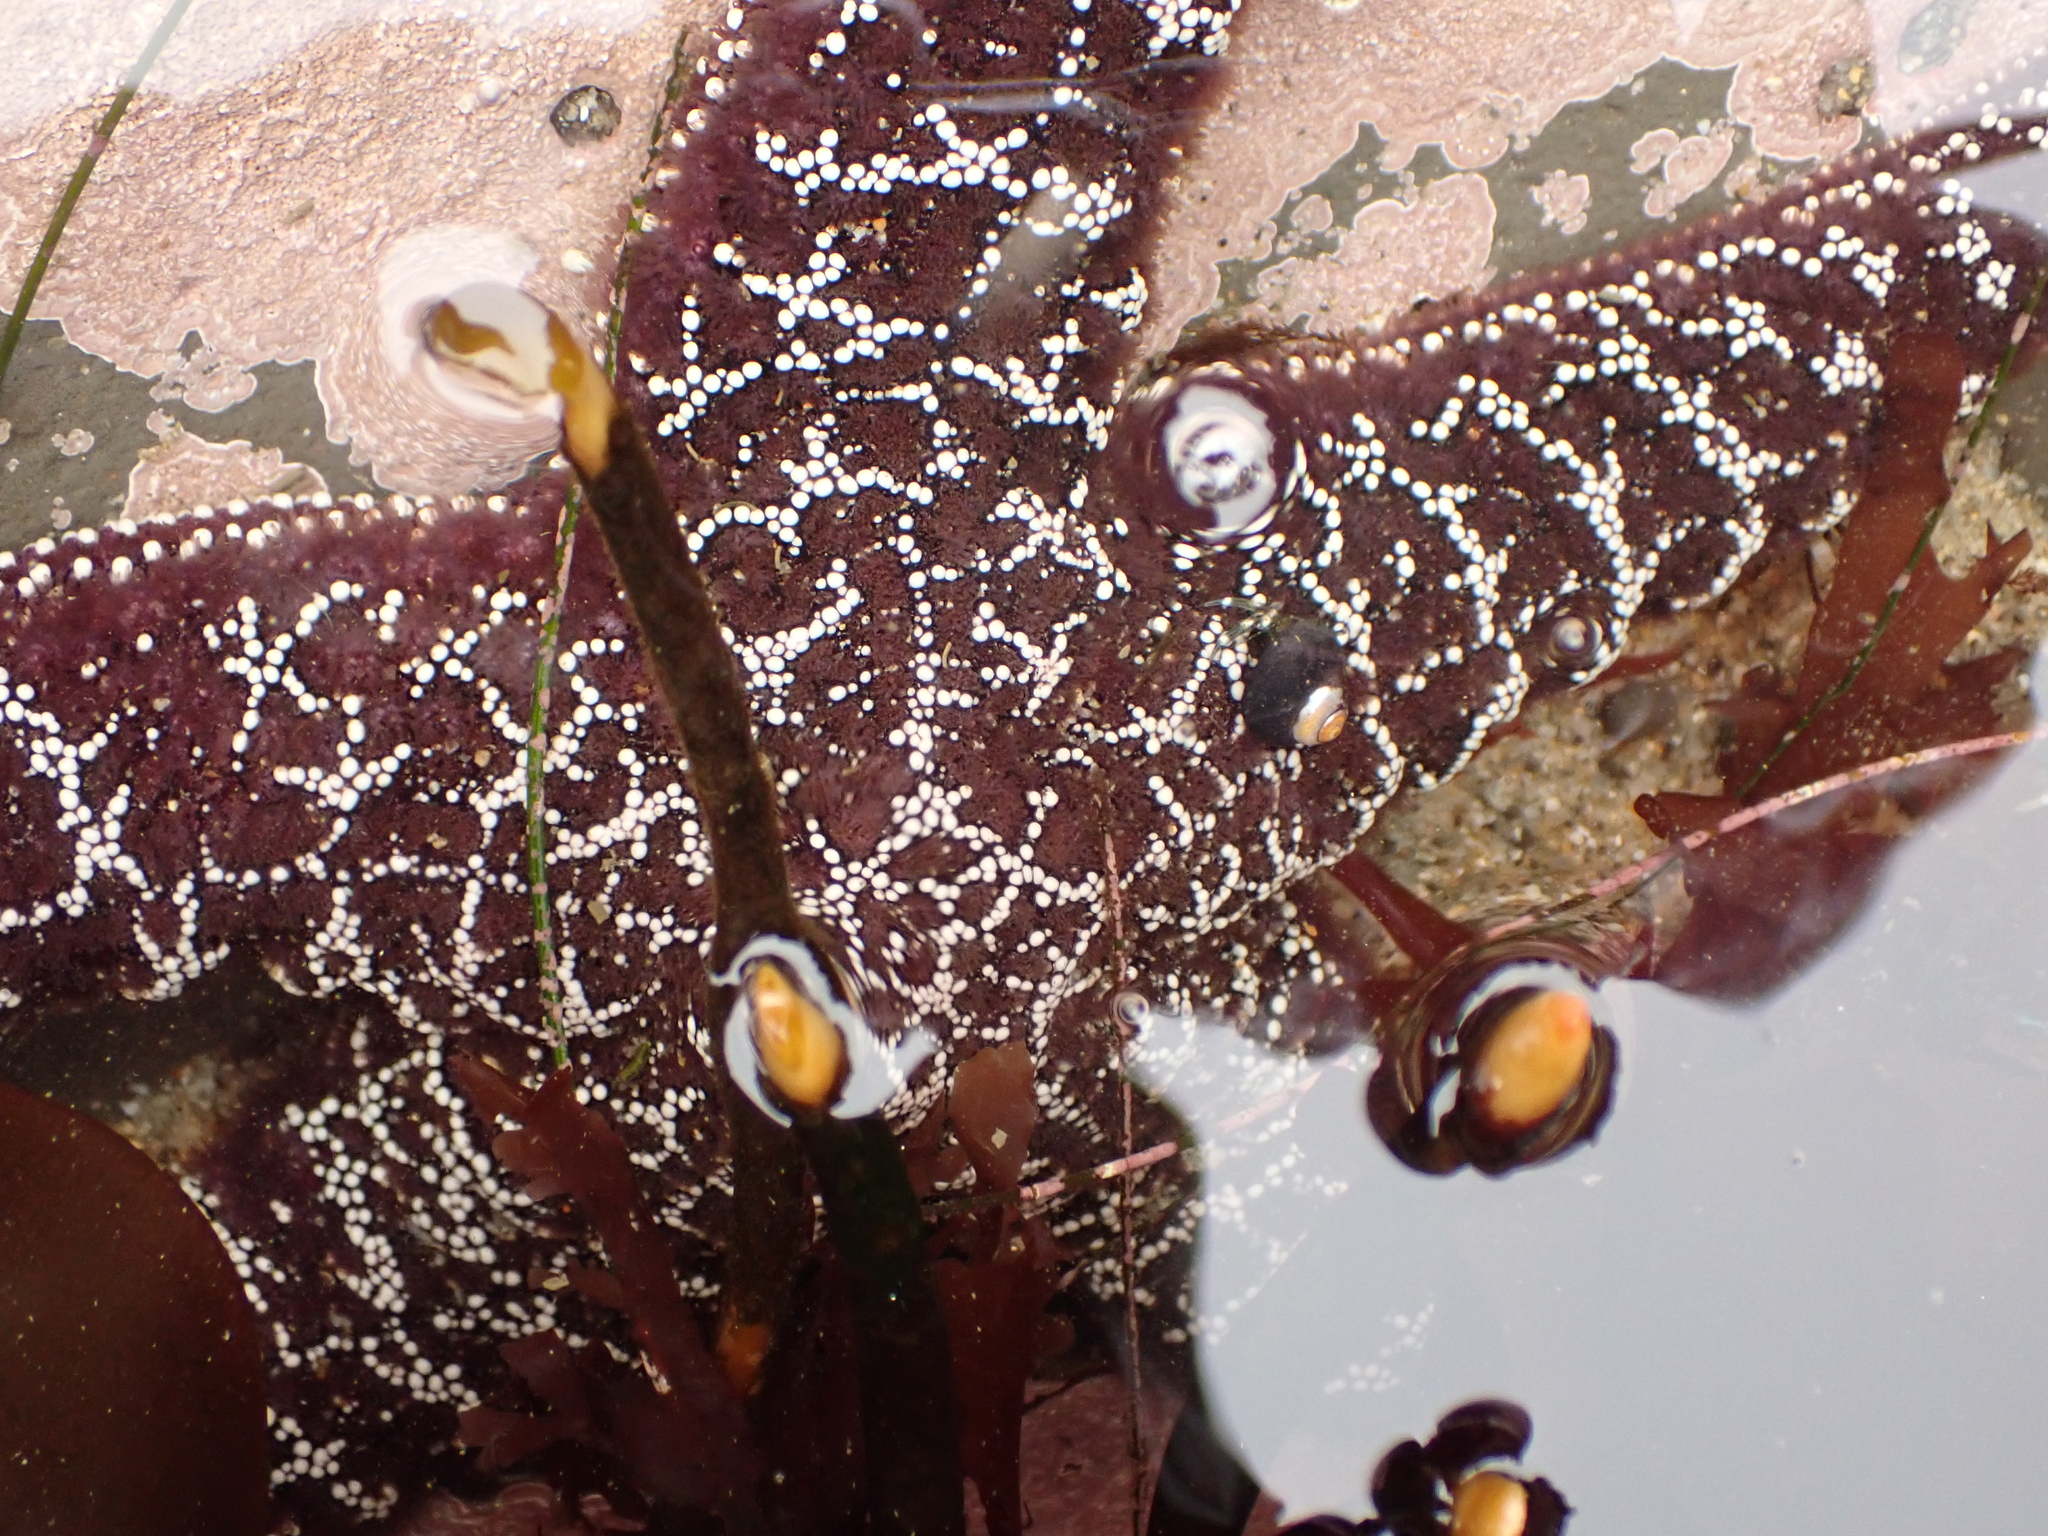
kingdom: Animalia
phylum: Echinodermata
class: Asteroidea
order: Forcipulatida
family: Asteriidae
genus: Pisaster
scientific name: Pisaster ochraceus
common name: Ochre stars
